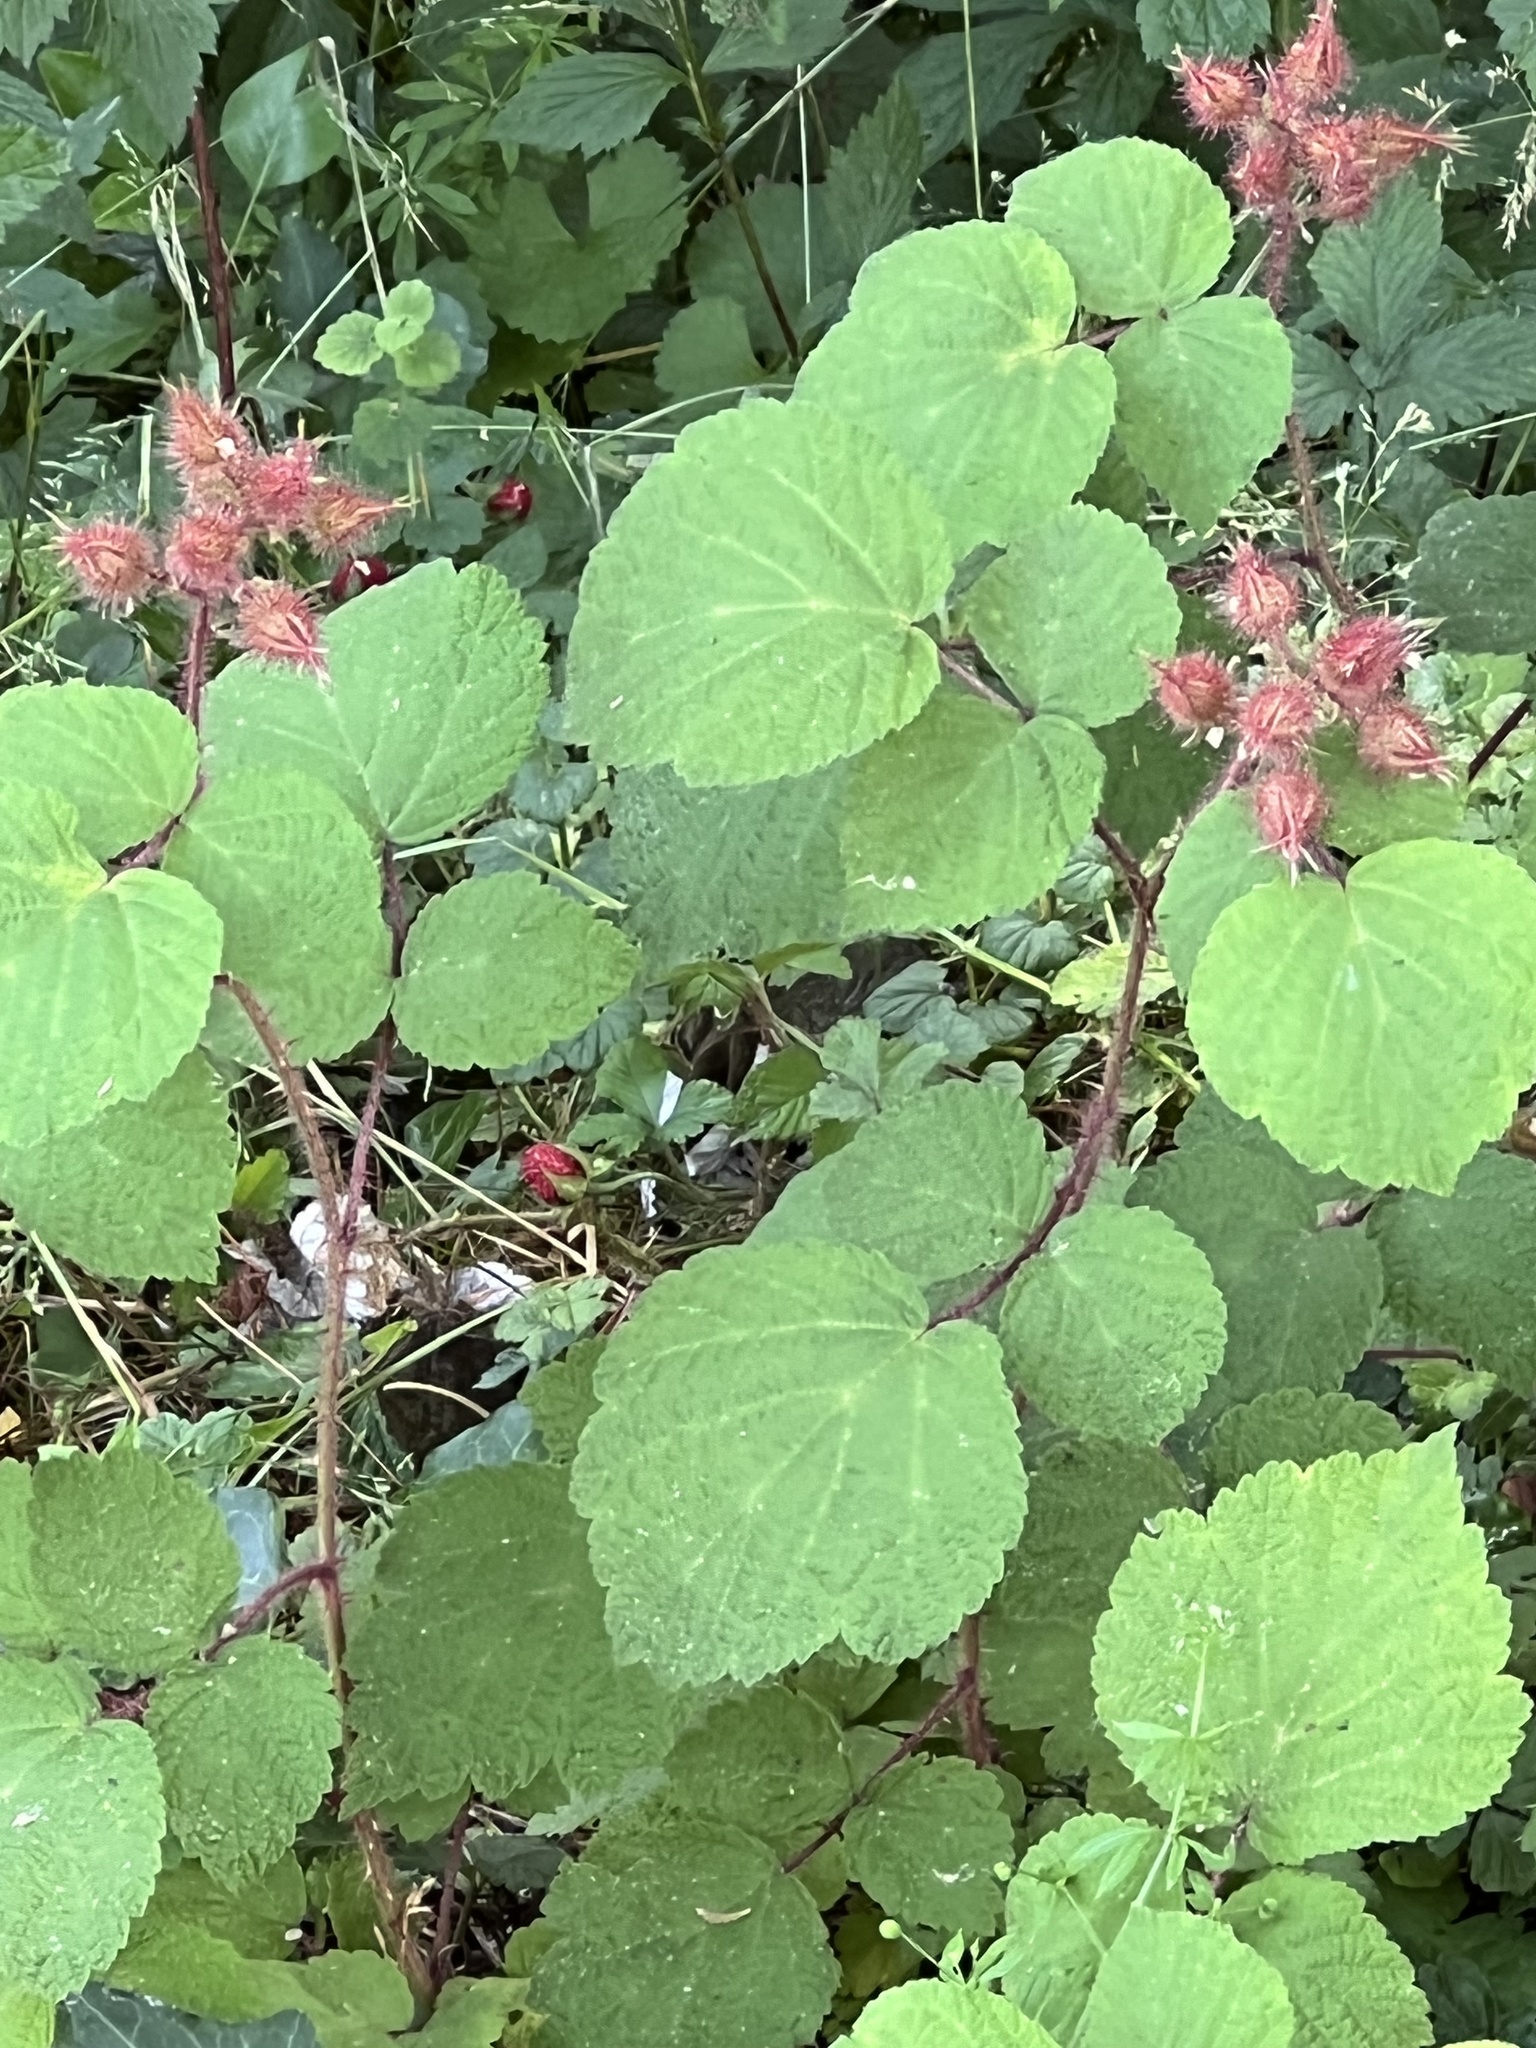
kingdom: Plantae
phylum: Tracheophyta
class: Magnoliopsida
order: Rosales
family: Rosaceae
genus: Rubus
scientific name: Rubus phoenicolasius
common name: Japanese wineberry
